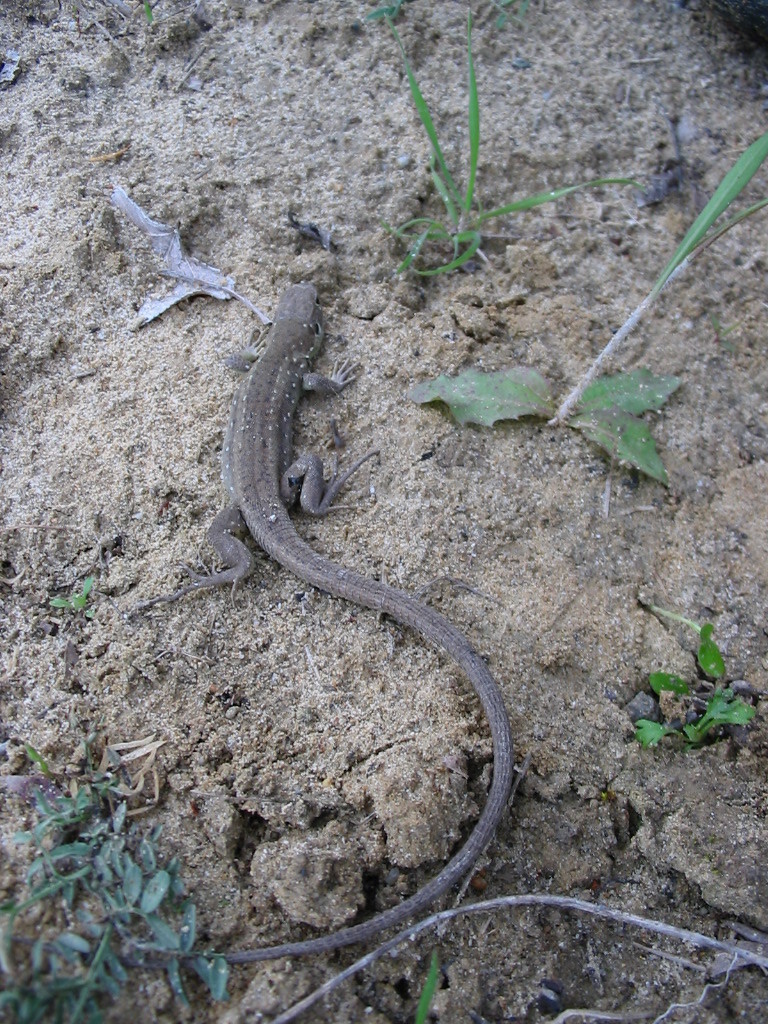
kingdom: Animalia
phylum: Chordata
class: Squamata
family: Lacertidae
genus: Lacerta
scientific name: Lacerta viridis
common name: European green lizard
